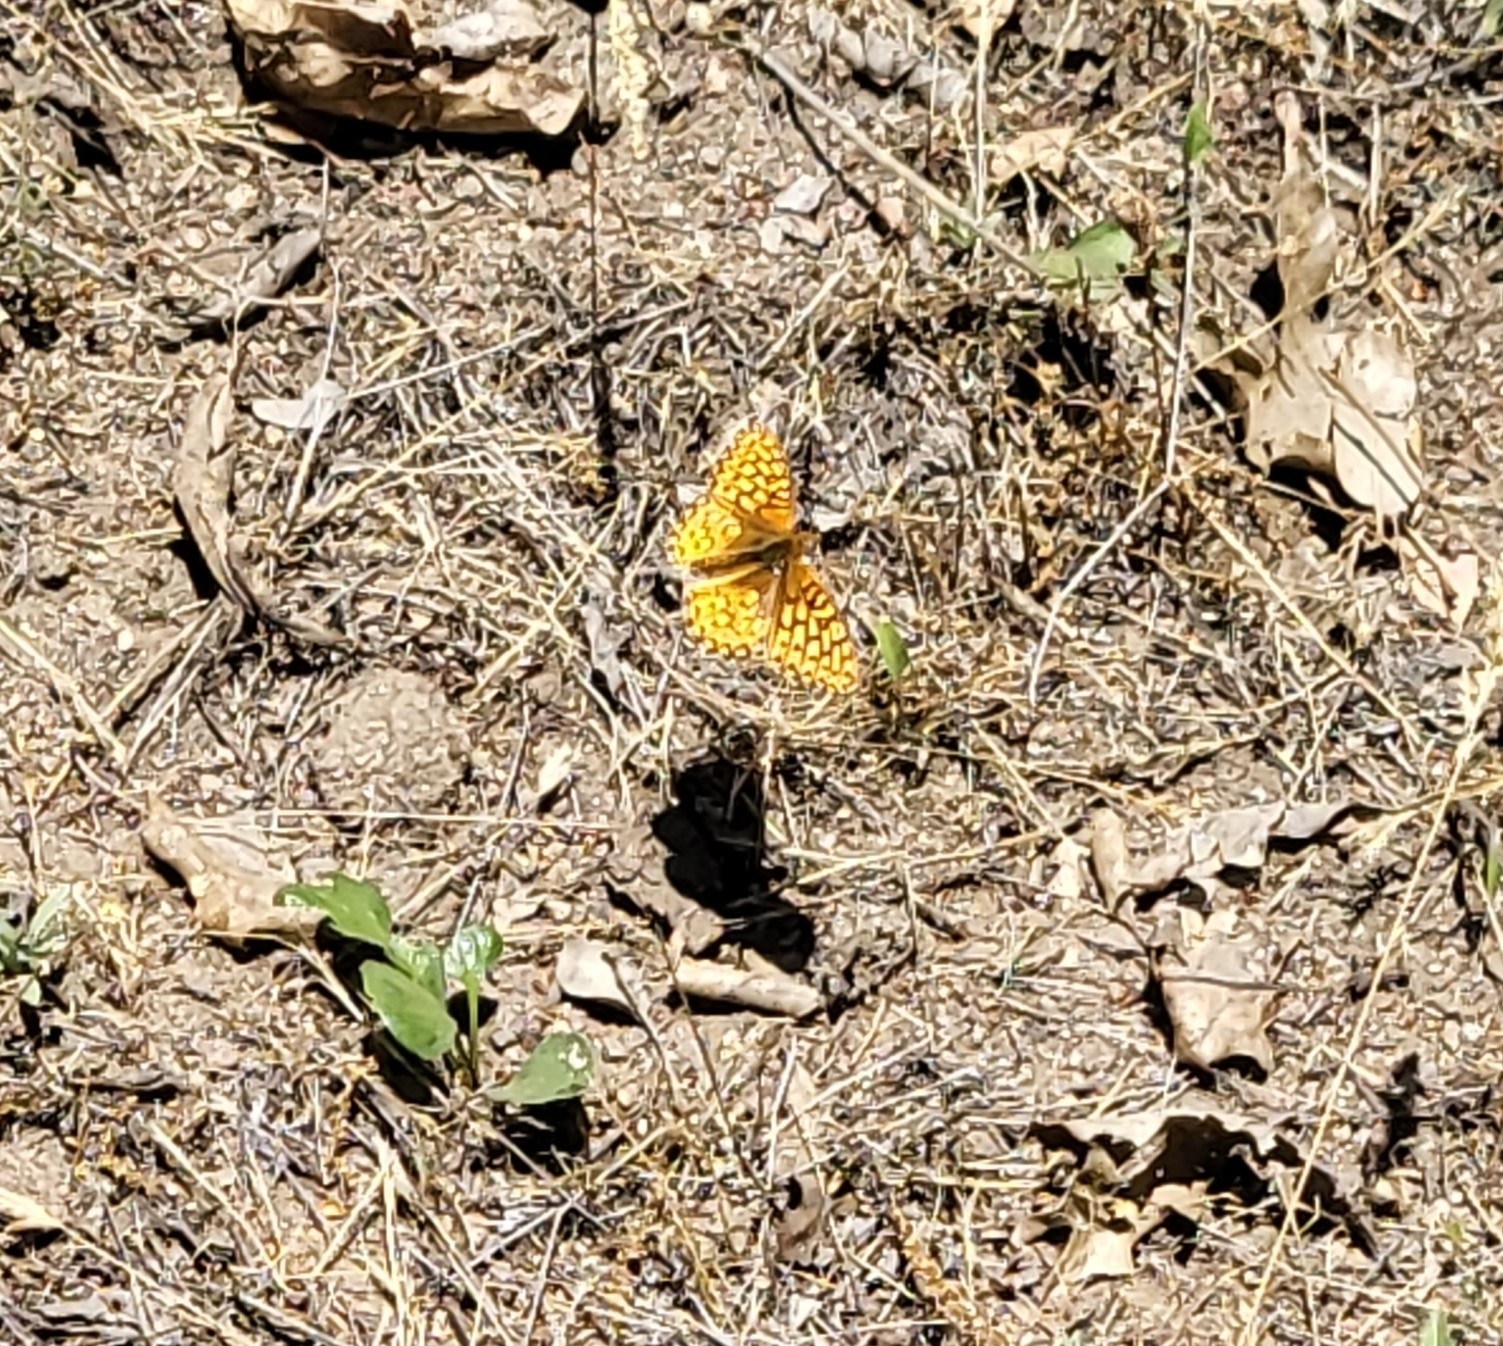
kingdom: Animalia
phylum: Arthropoda
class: Insecta
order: Lepidoptera
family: Nymphalidae
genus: Speyeria
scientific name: Speyeria callippe
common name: Callippe fritillary
